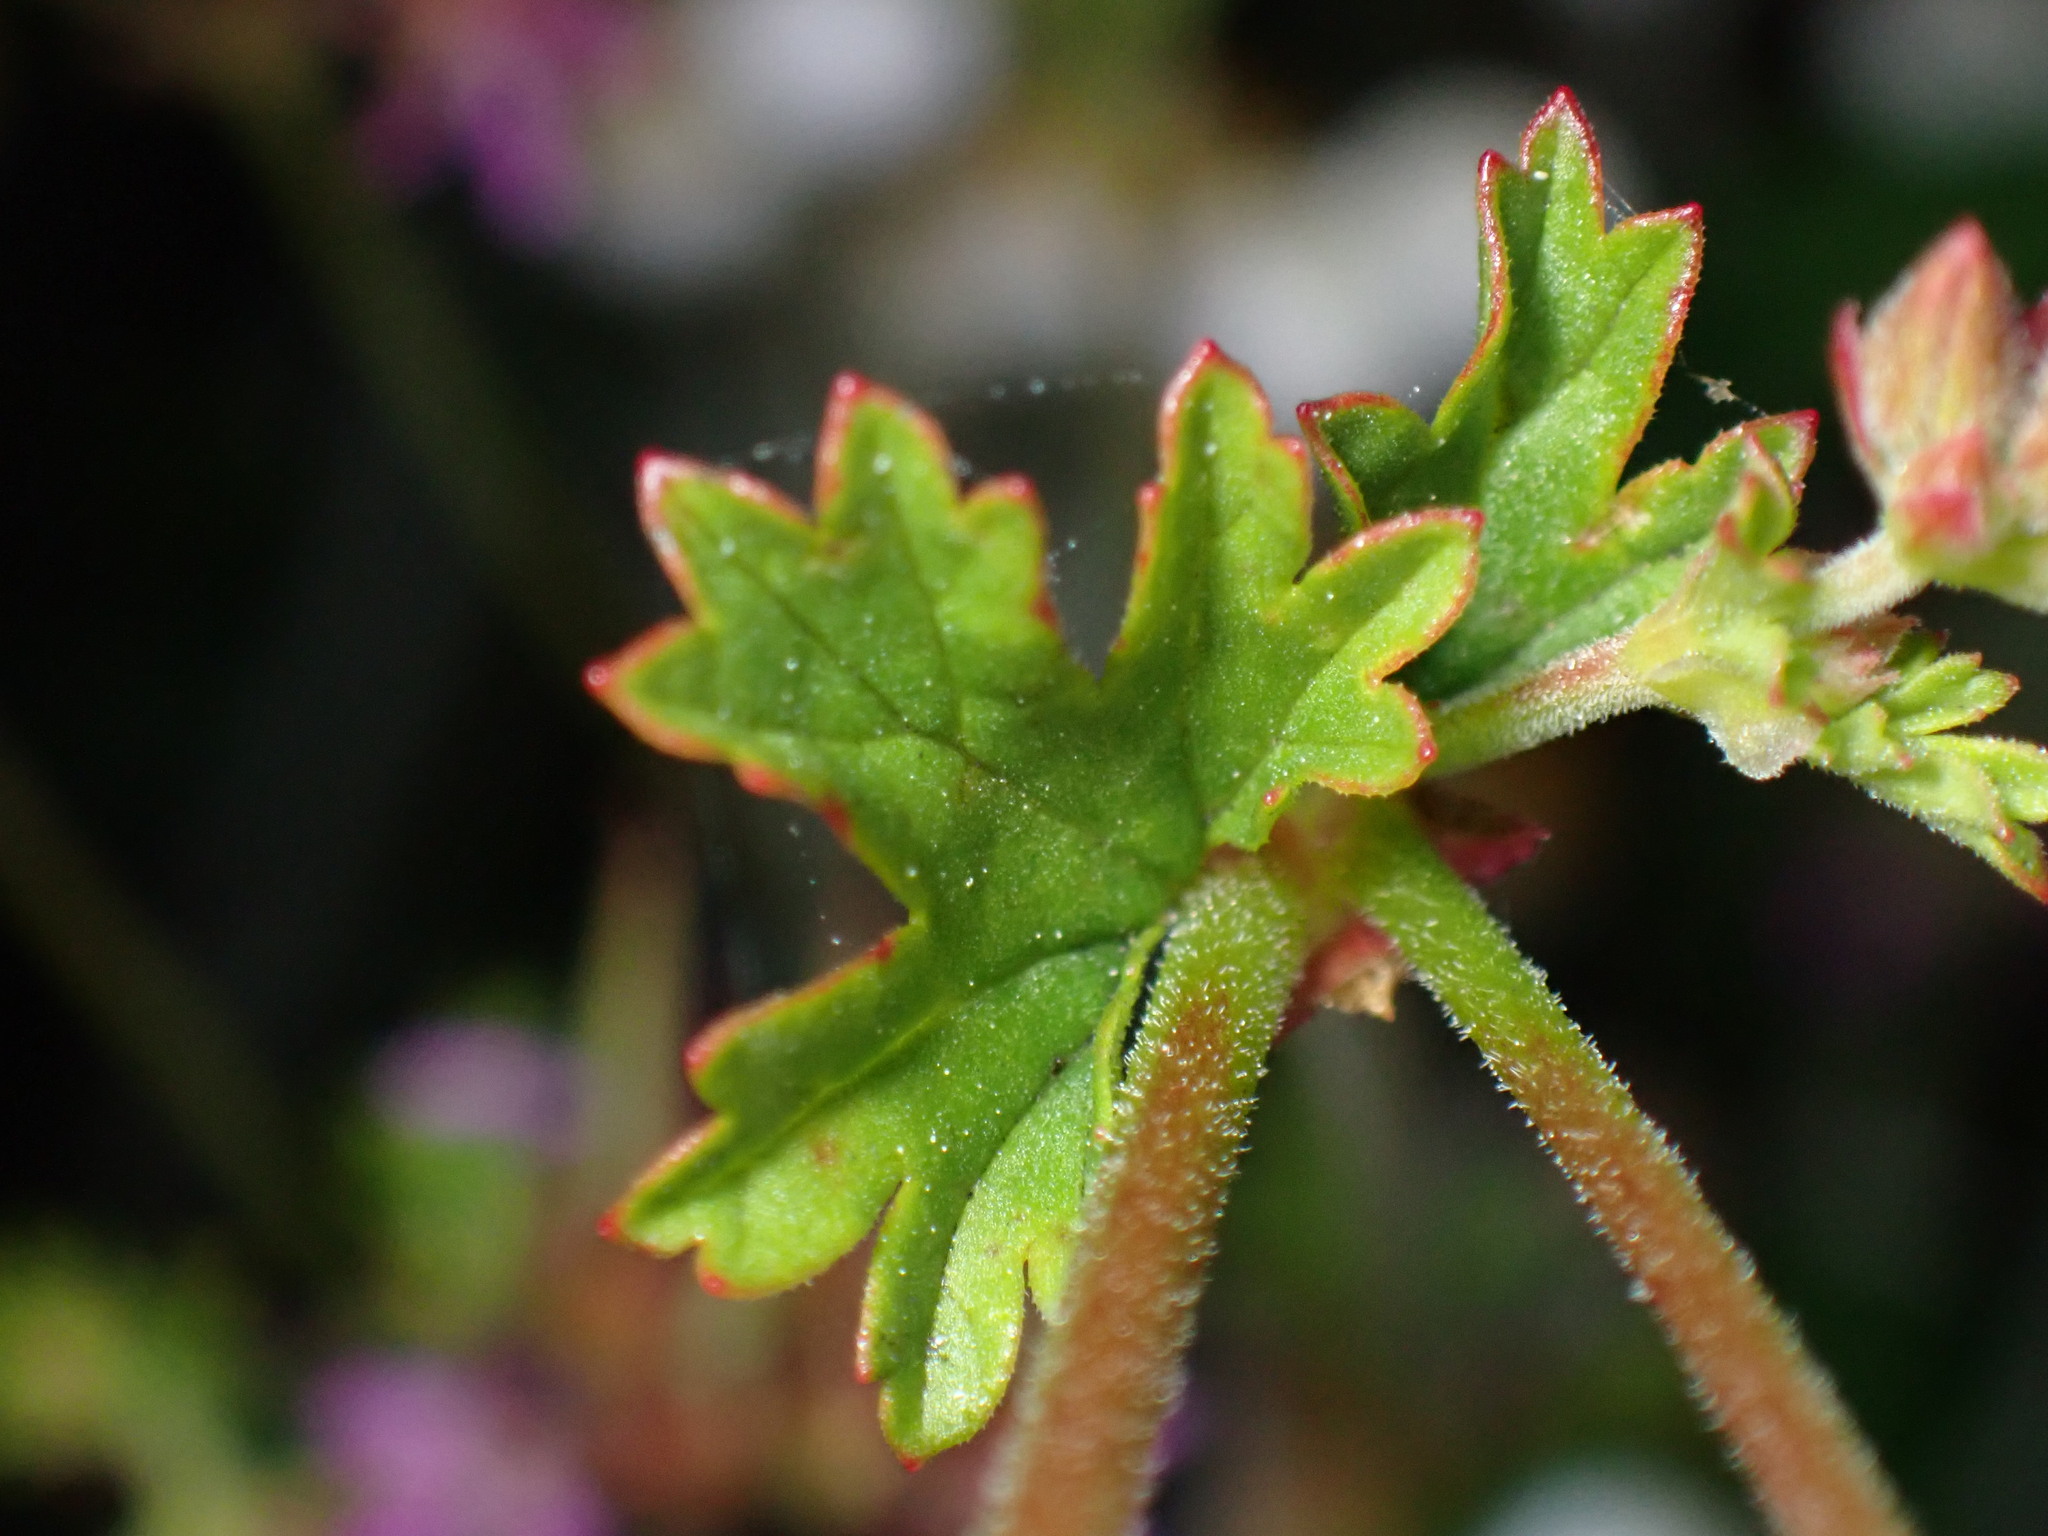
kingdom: Plantae
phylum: Tracheophyta
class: Magnoliopsida
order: Geraniales
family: Geraniaceae
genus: Pelargonium
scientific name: Pelargonium grossularioides
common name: Gooseberry geranium
